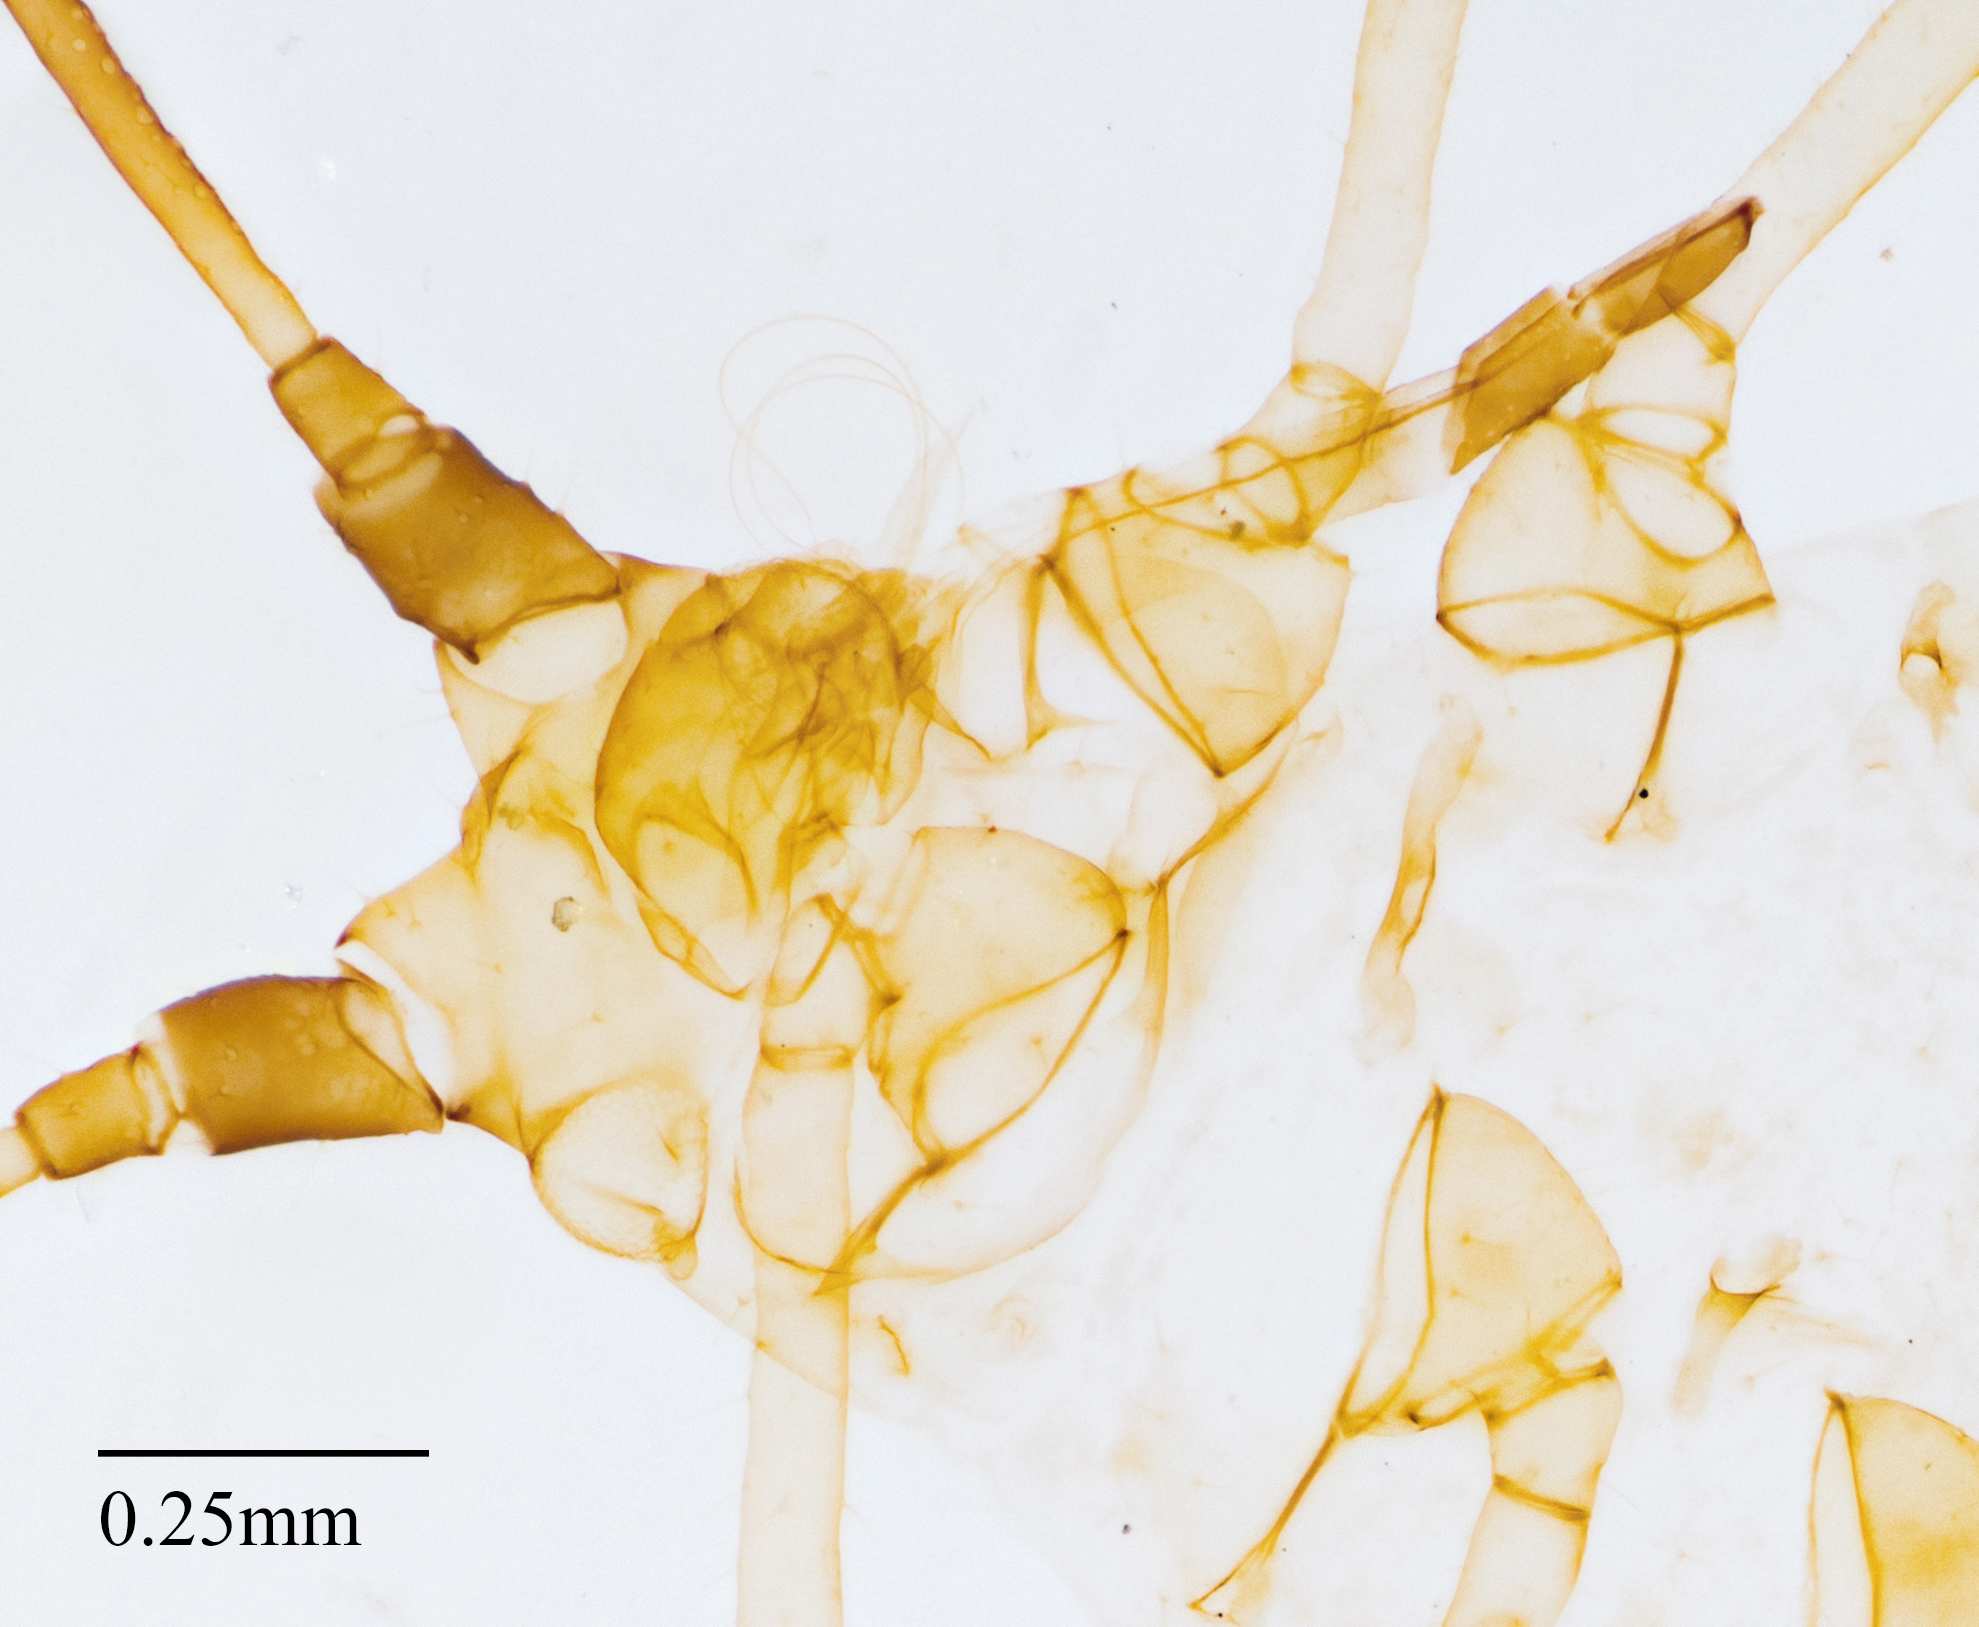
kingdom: Animalia
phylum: Arthropoda
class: Insecta
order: Hemiptera
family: Aphididae
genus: Uroleucon
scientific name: Uroleucon sonchi
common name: Large sowthistle aphid
